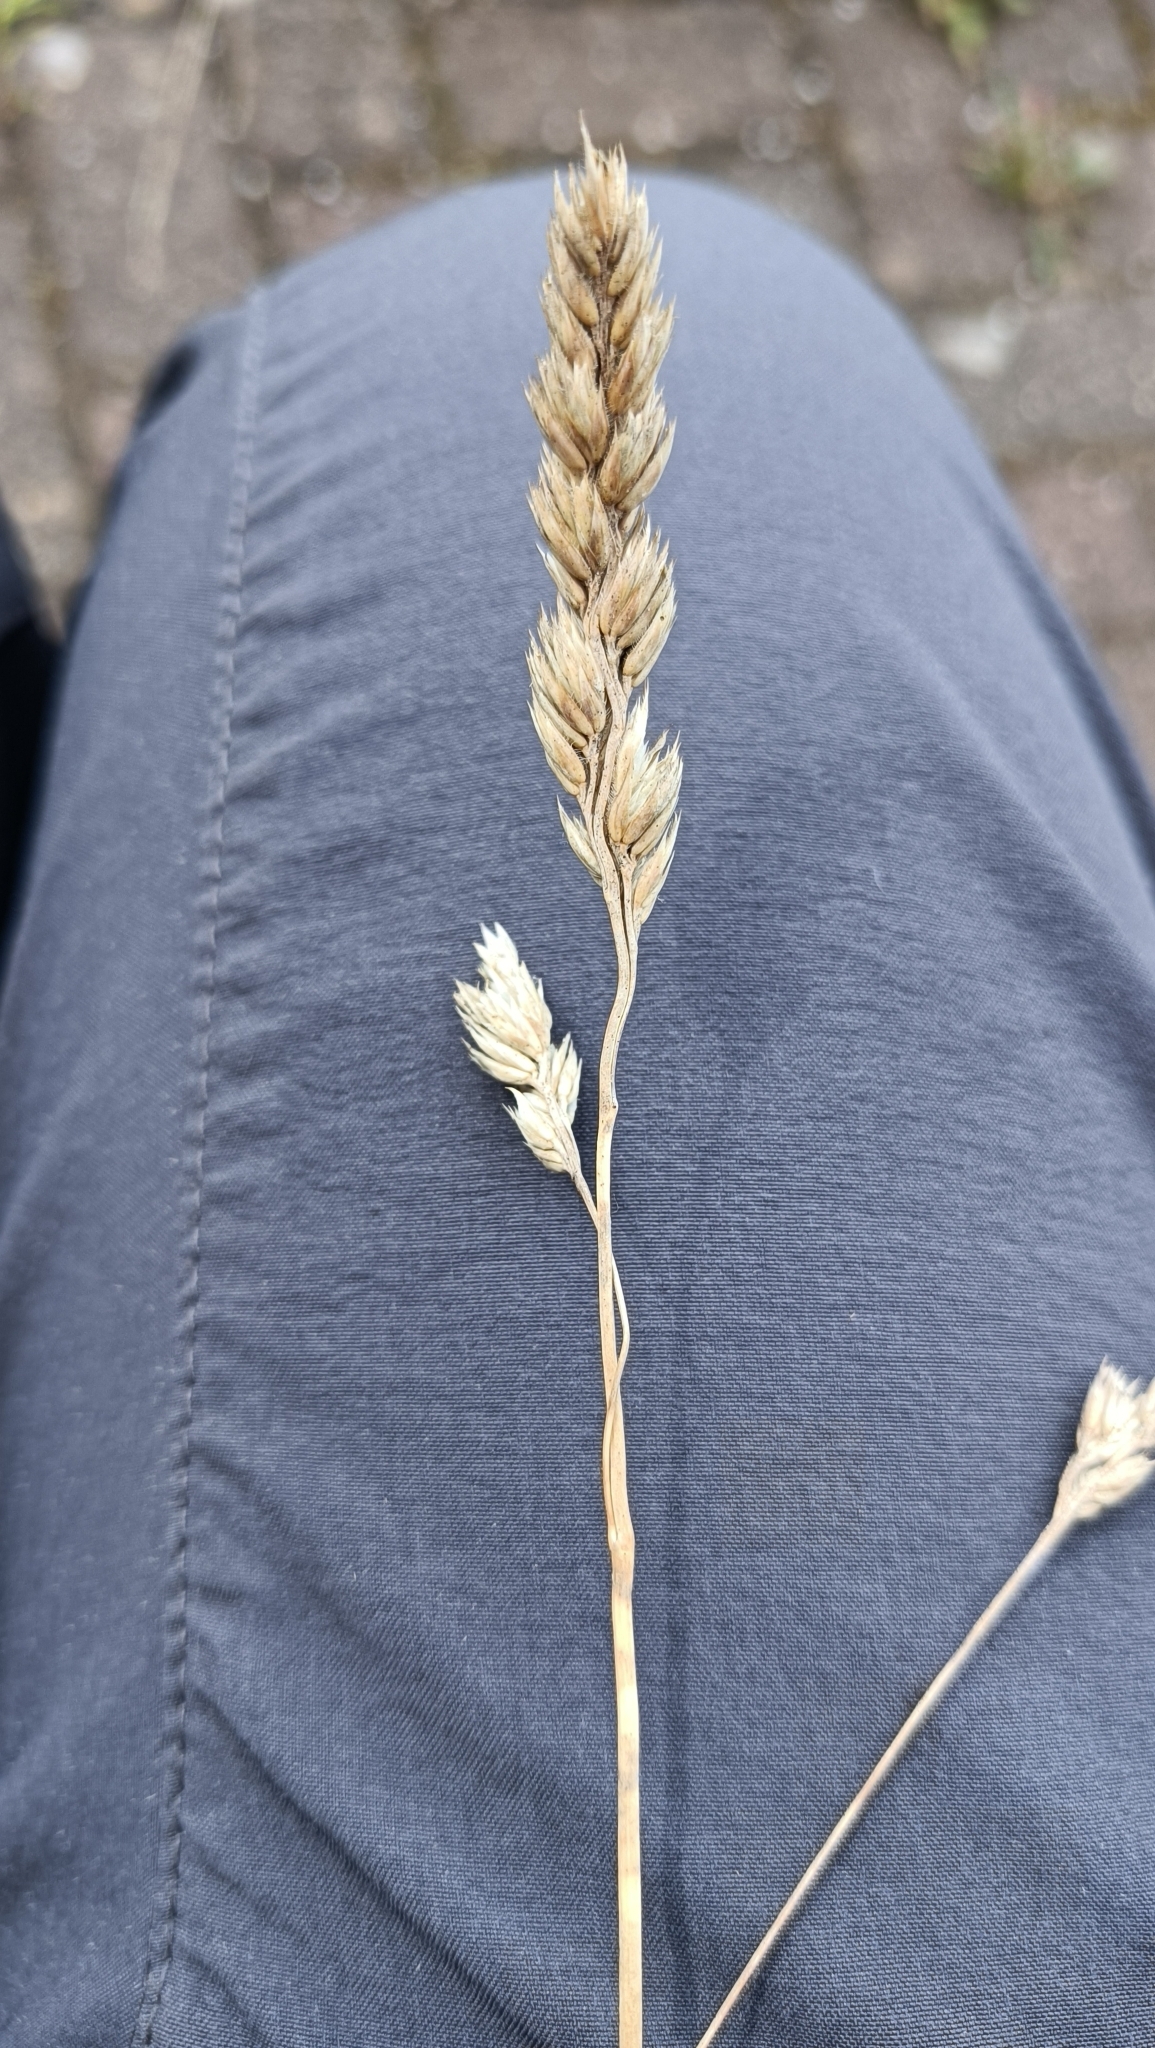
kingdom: Plantae
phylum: Tracheophyta
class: Liliopsida
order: Poales
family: Poaceae
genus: Dactylis
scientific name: Dactylis glomerata
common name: Orchardgrass
